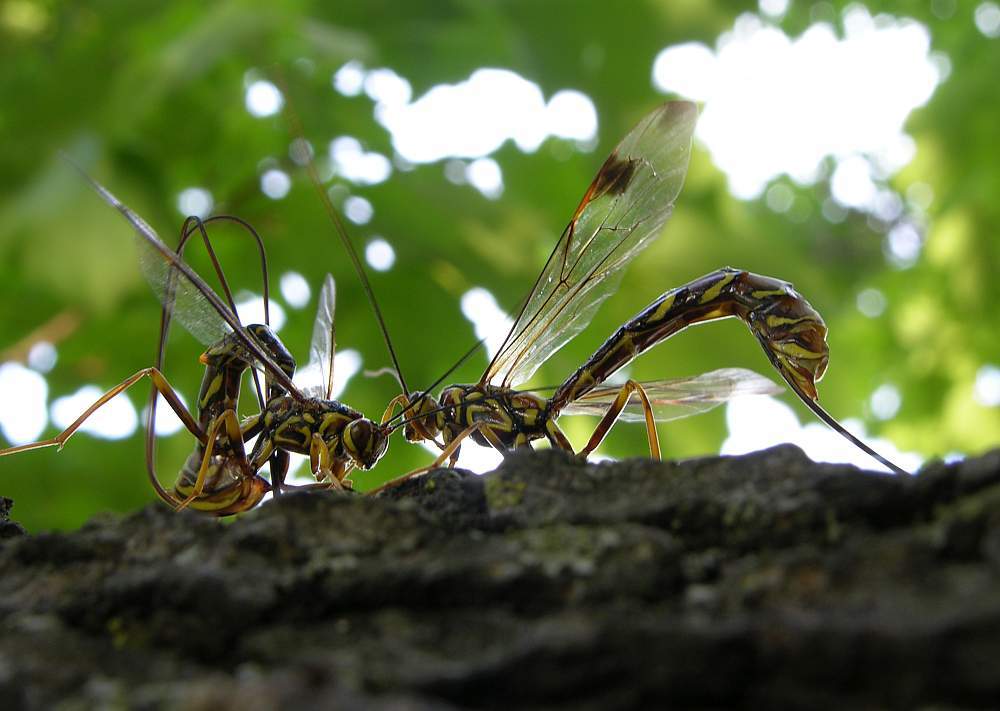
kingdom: Animalia
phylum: Arthropoda
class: Insecta
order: Hymenoptera
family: Ichneumonidae
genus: Megarhyssa
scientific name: Megarhyssa macrura
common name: Long-tailed giant ichneumonid wasp
